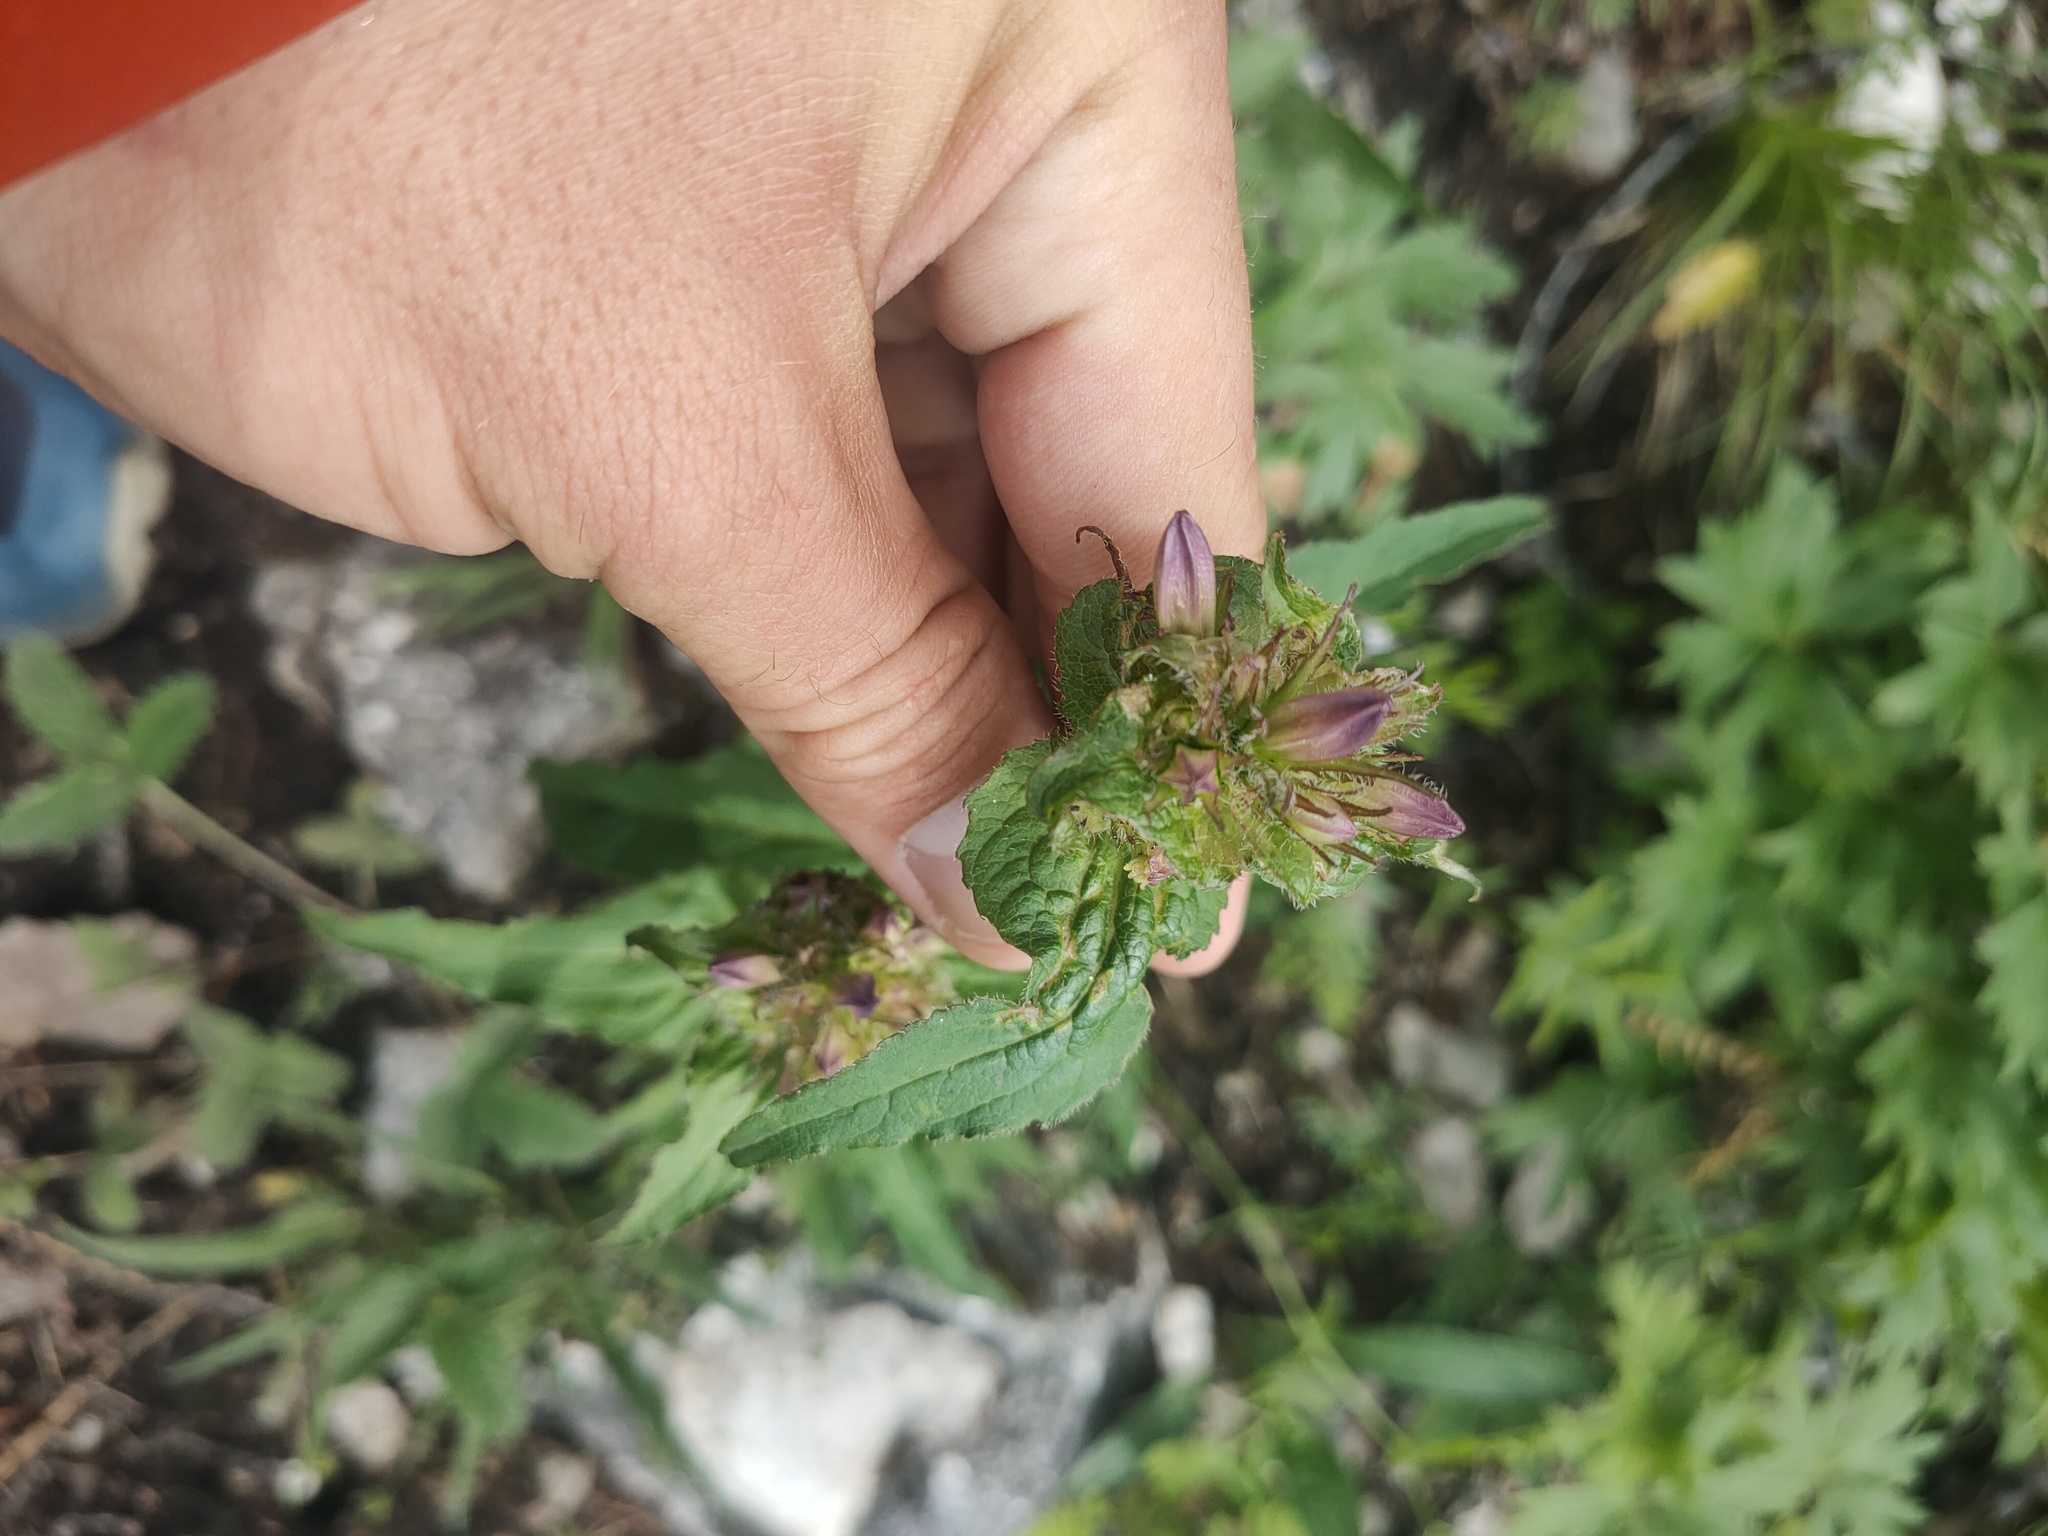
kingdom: Plantae
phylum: Tracheophyta
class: Magnoliopsida
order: Asterales
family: Campanulaceae
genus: Campanula
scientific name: Campanula glomerata
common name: Clustered bellflower
